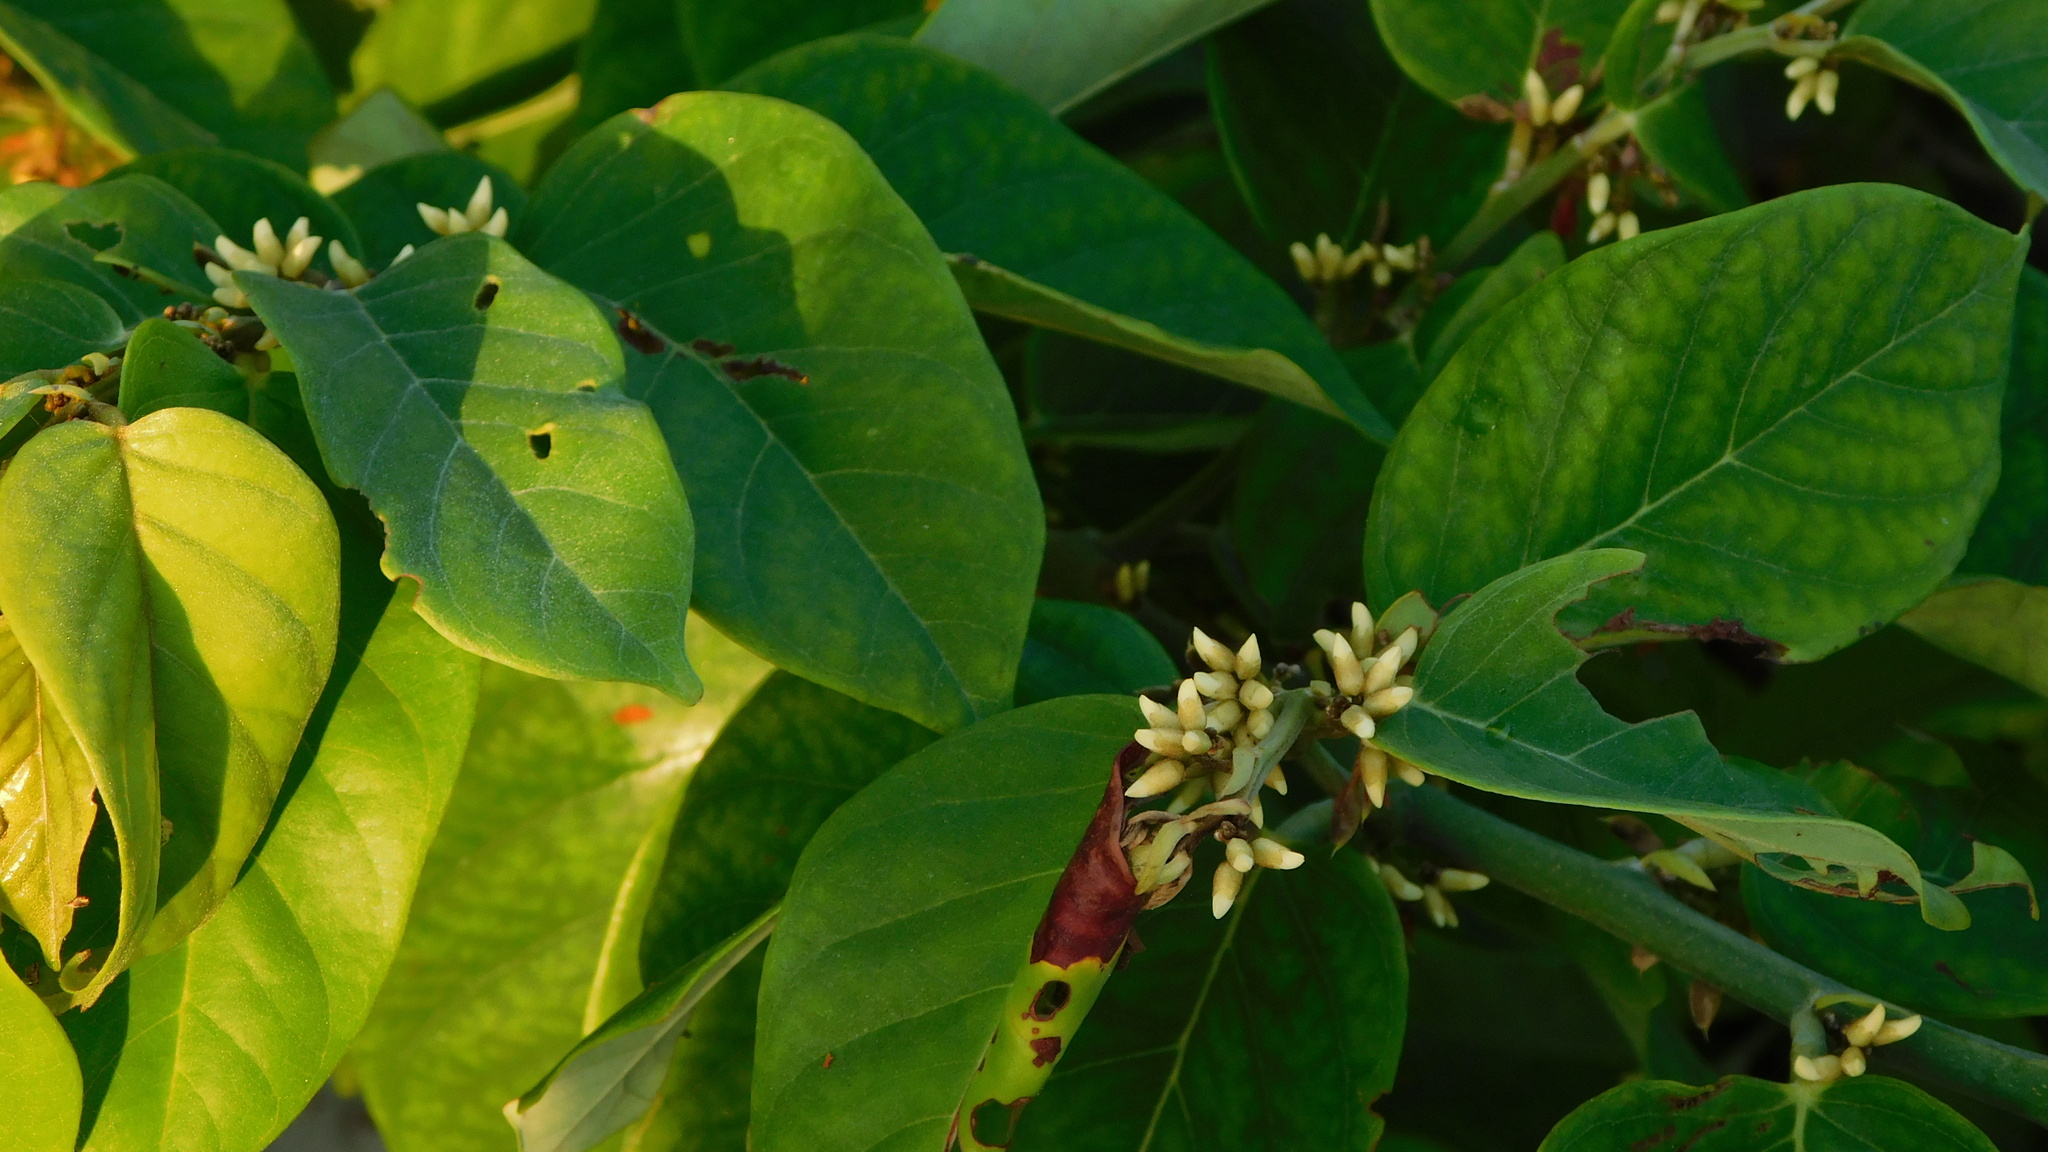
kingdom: Plantae
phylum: Tracheophyta
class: Magnoliopsida
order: Fabales
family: Fabaceae
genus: Dalbergia
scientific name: Dalbergia ecastaphyllum
